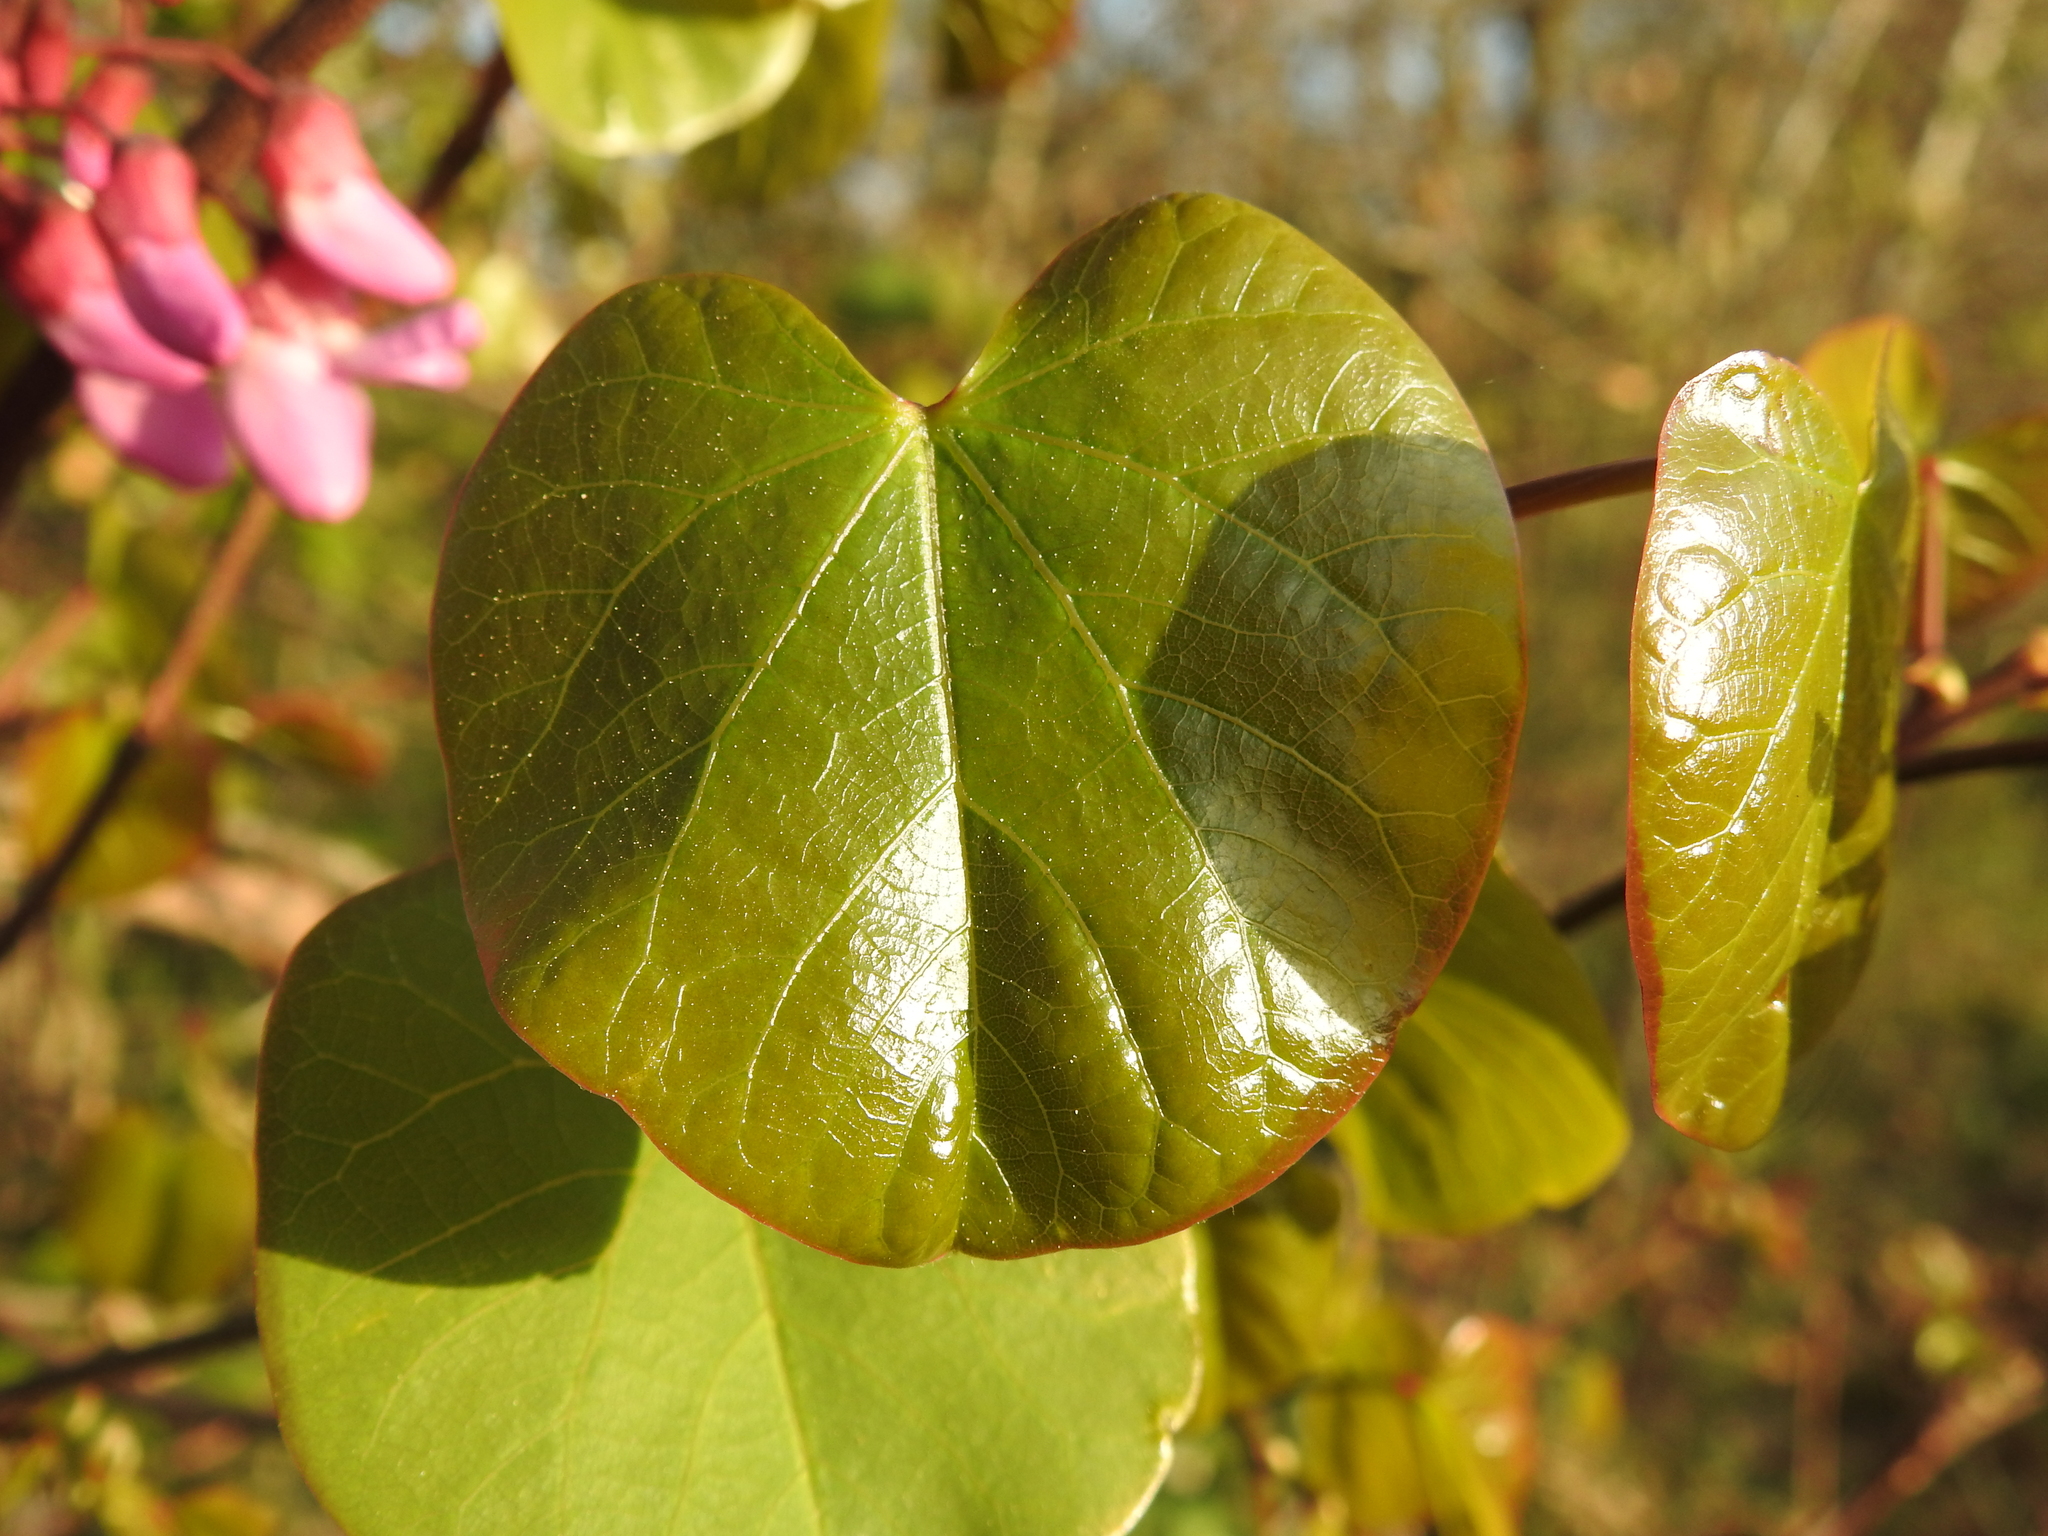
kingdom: Plantae
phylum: Tracheophyta
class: Magnoliopsida
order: Fabales
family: Fabaceae
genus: Cercis
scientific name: Cercis siliquastrum
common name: Judas tree
